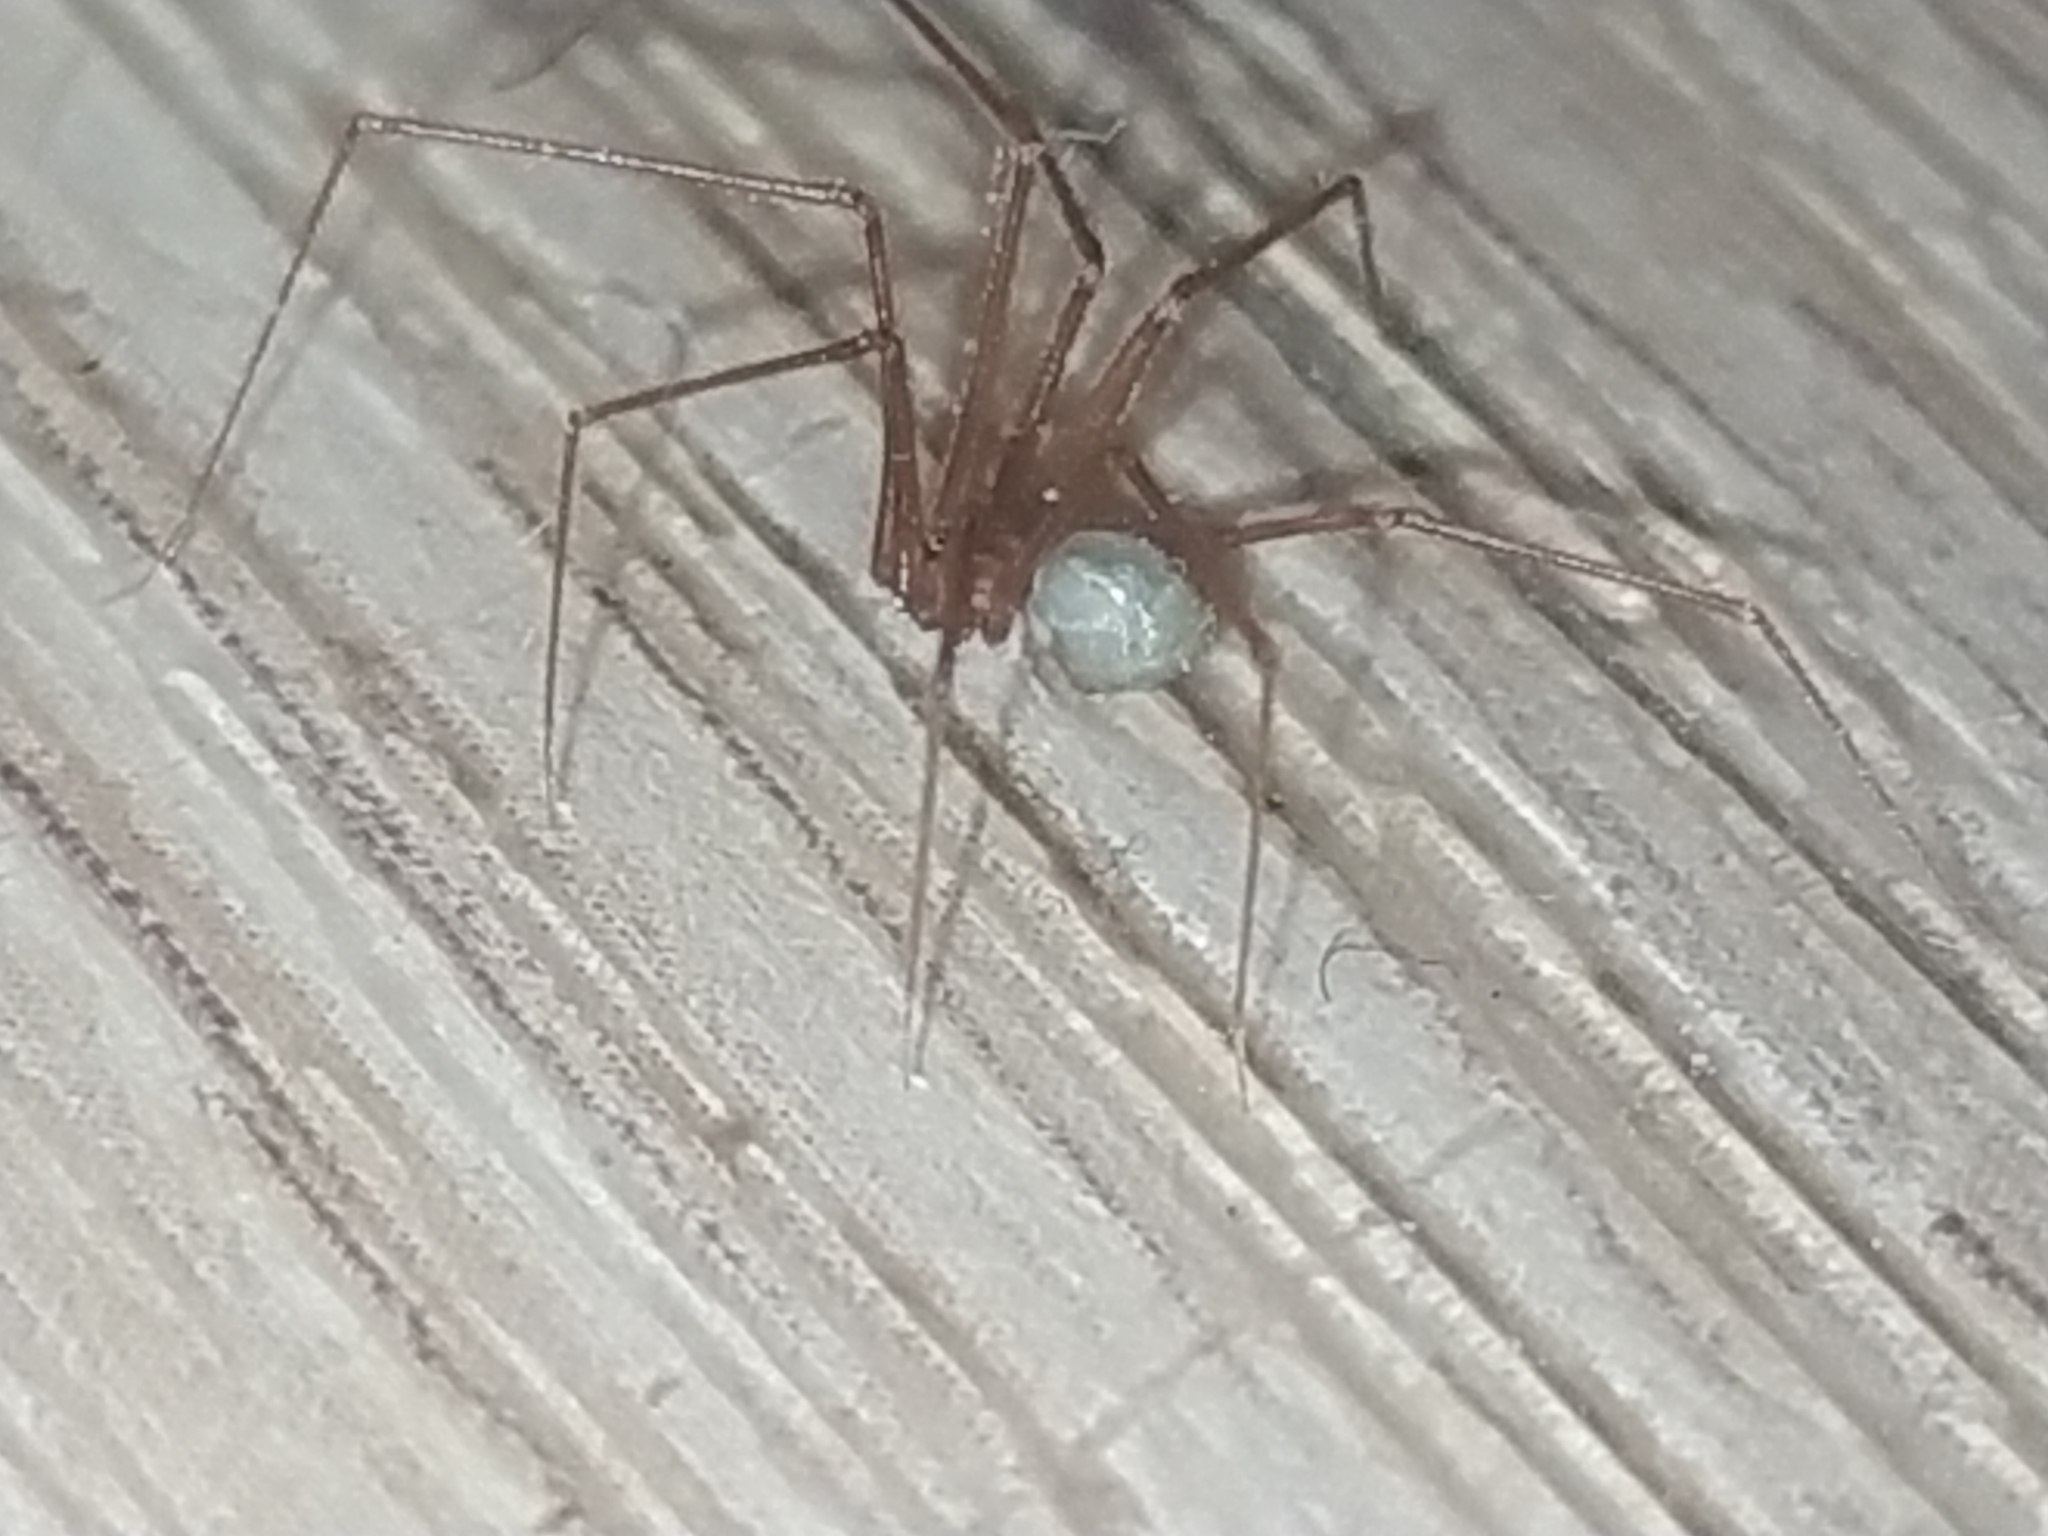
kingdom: Animalia
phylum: Arthropoda
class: Arachnida
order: Araneae
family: Pholcidae
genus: Psilochorus
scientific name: Psilochorus simoni
